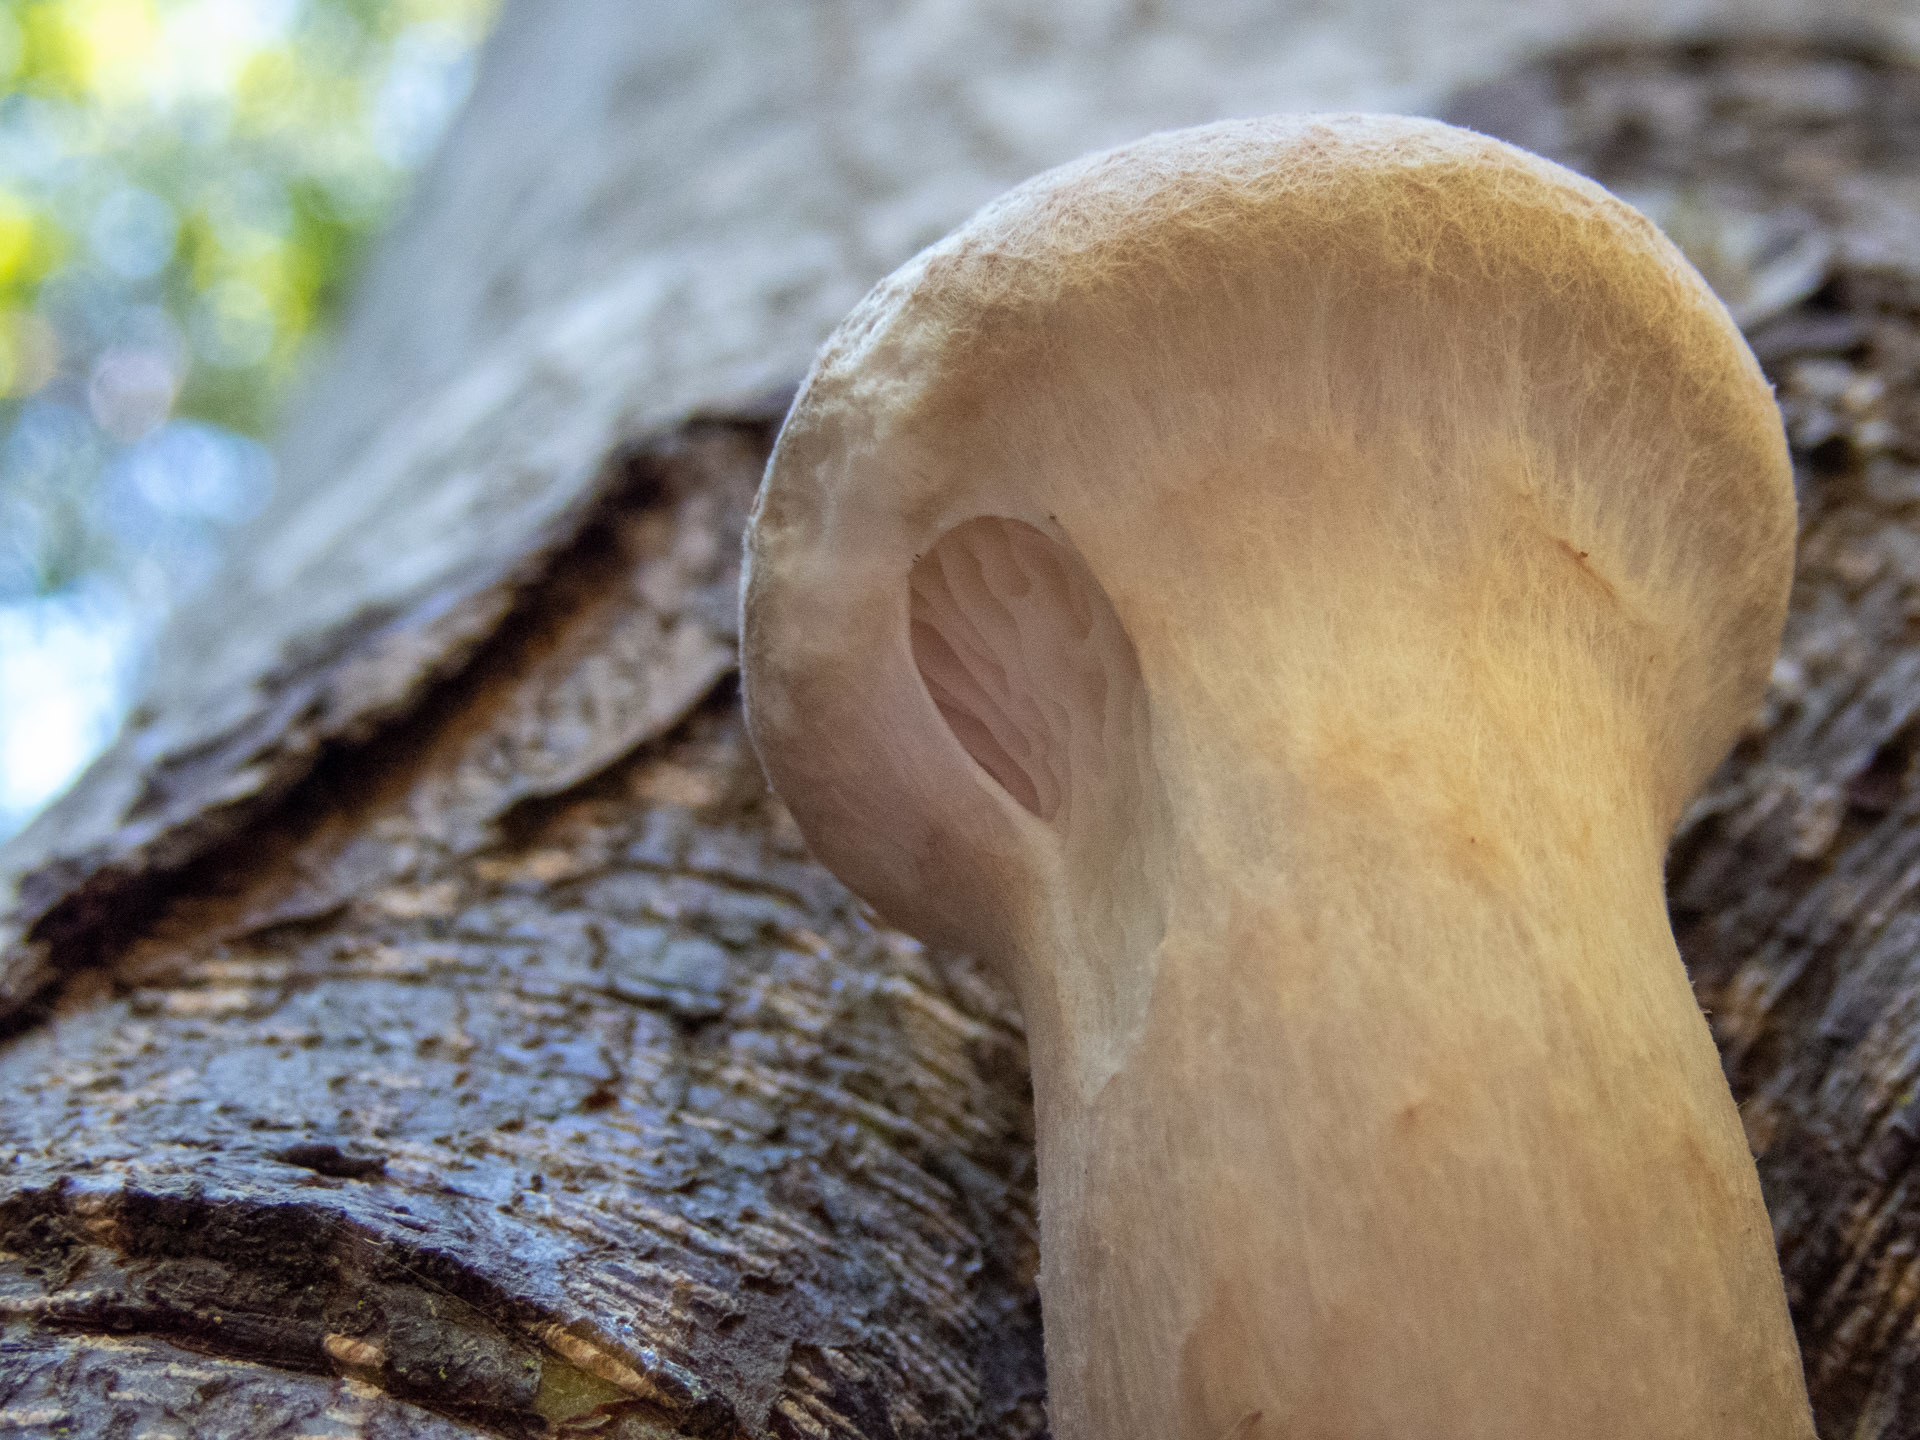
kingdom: Fungi
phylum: Basidiomycota
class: Agaricomycetes
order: Agaricales
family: Pleurotaceae
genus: Pleurotus
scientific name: Pleurotus dryinus
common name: Veiled oyster
